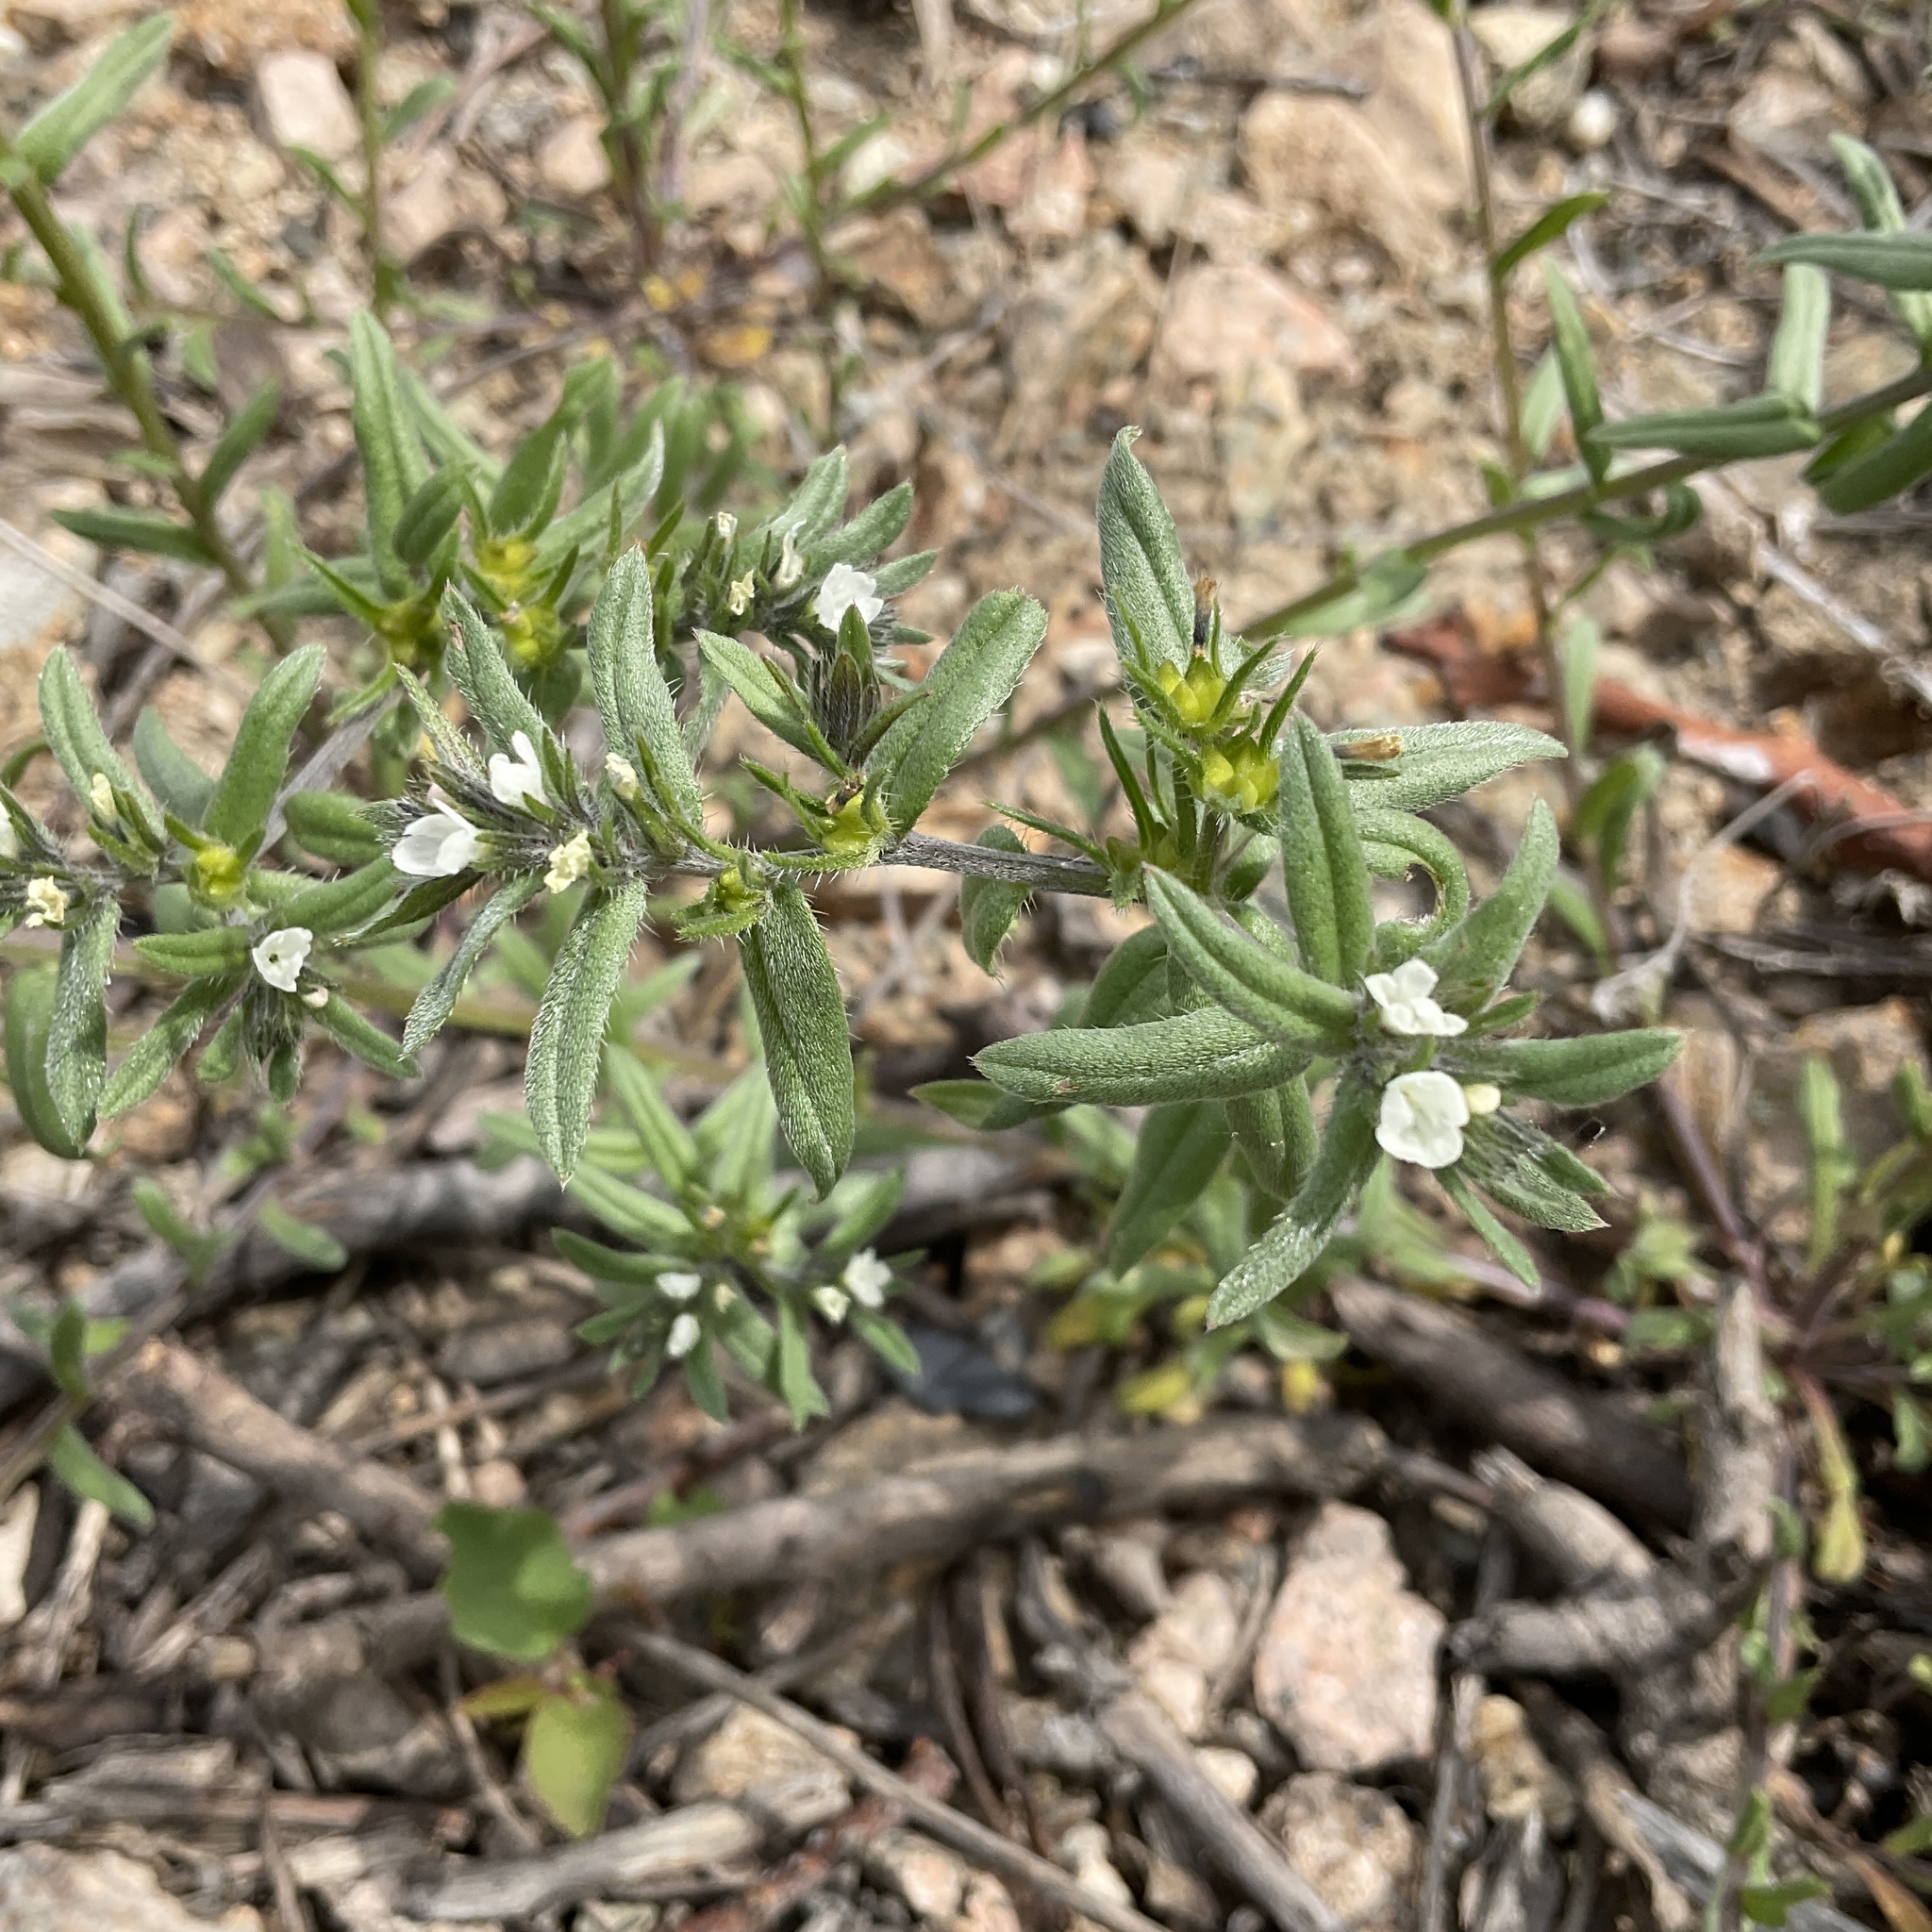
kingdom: Plantae
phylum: Tracheophyta
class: Magnoliopsida
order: Boraginales
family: Boraginaceae
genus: Buglossoides
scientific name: Buglossoides arvensis
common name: Corn gromwell
